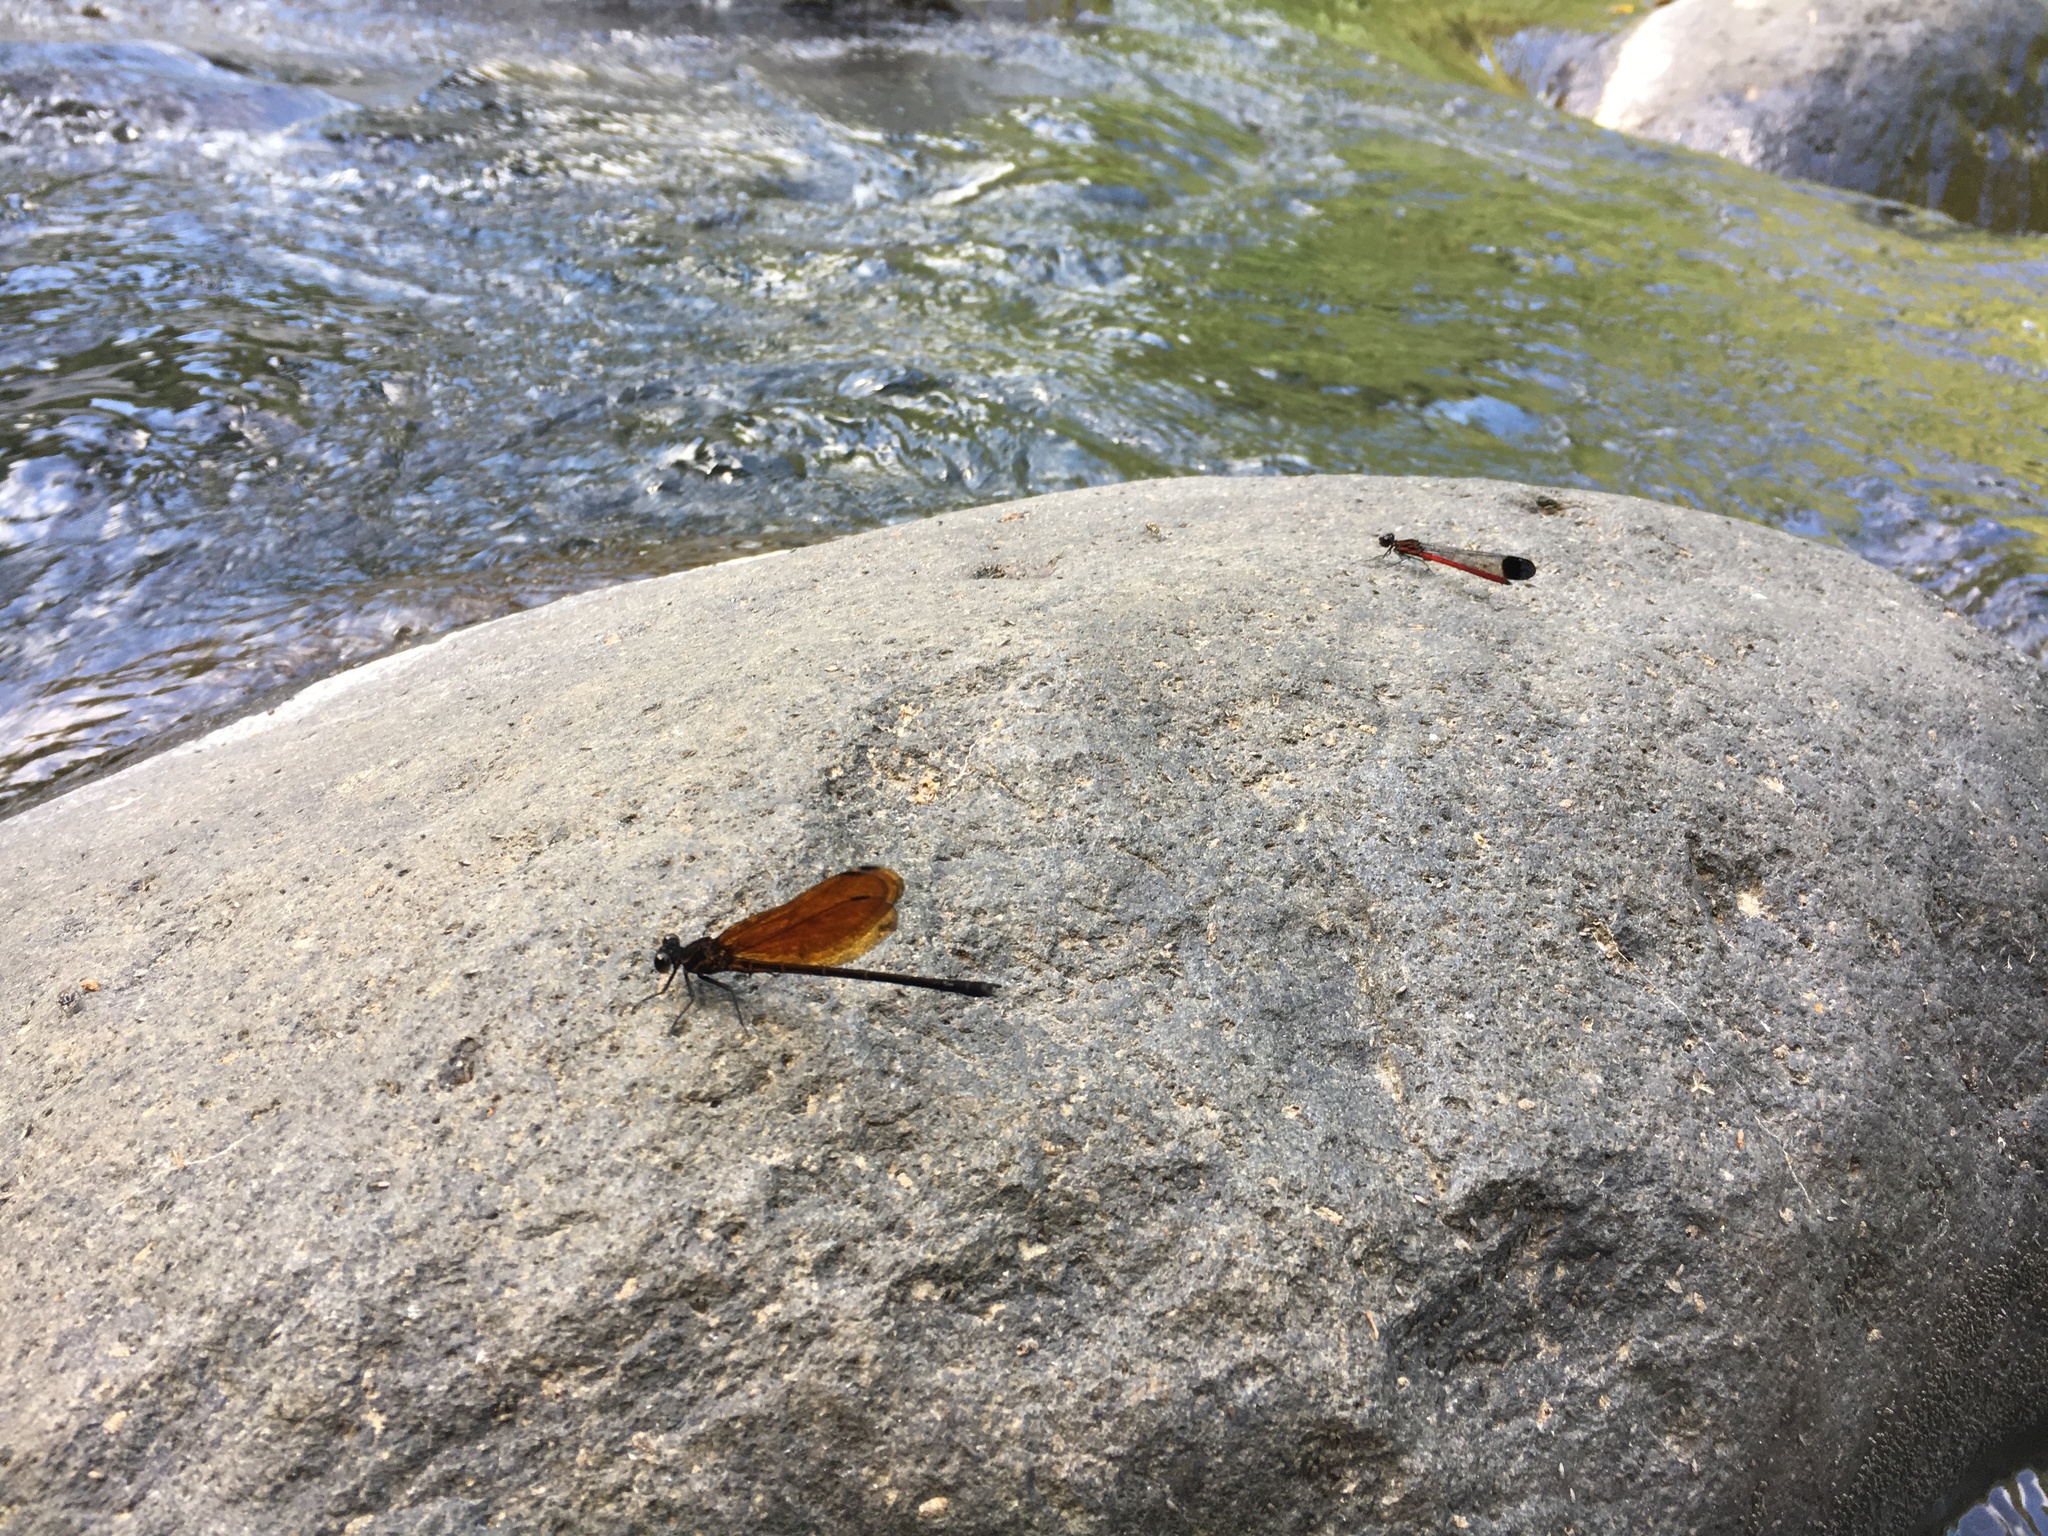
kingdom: Animalia
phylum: Arthropoda
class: Insecta
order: Odonata
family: Euphaeidae
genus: Euphaea
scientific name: Euphaea lara
